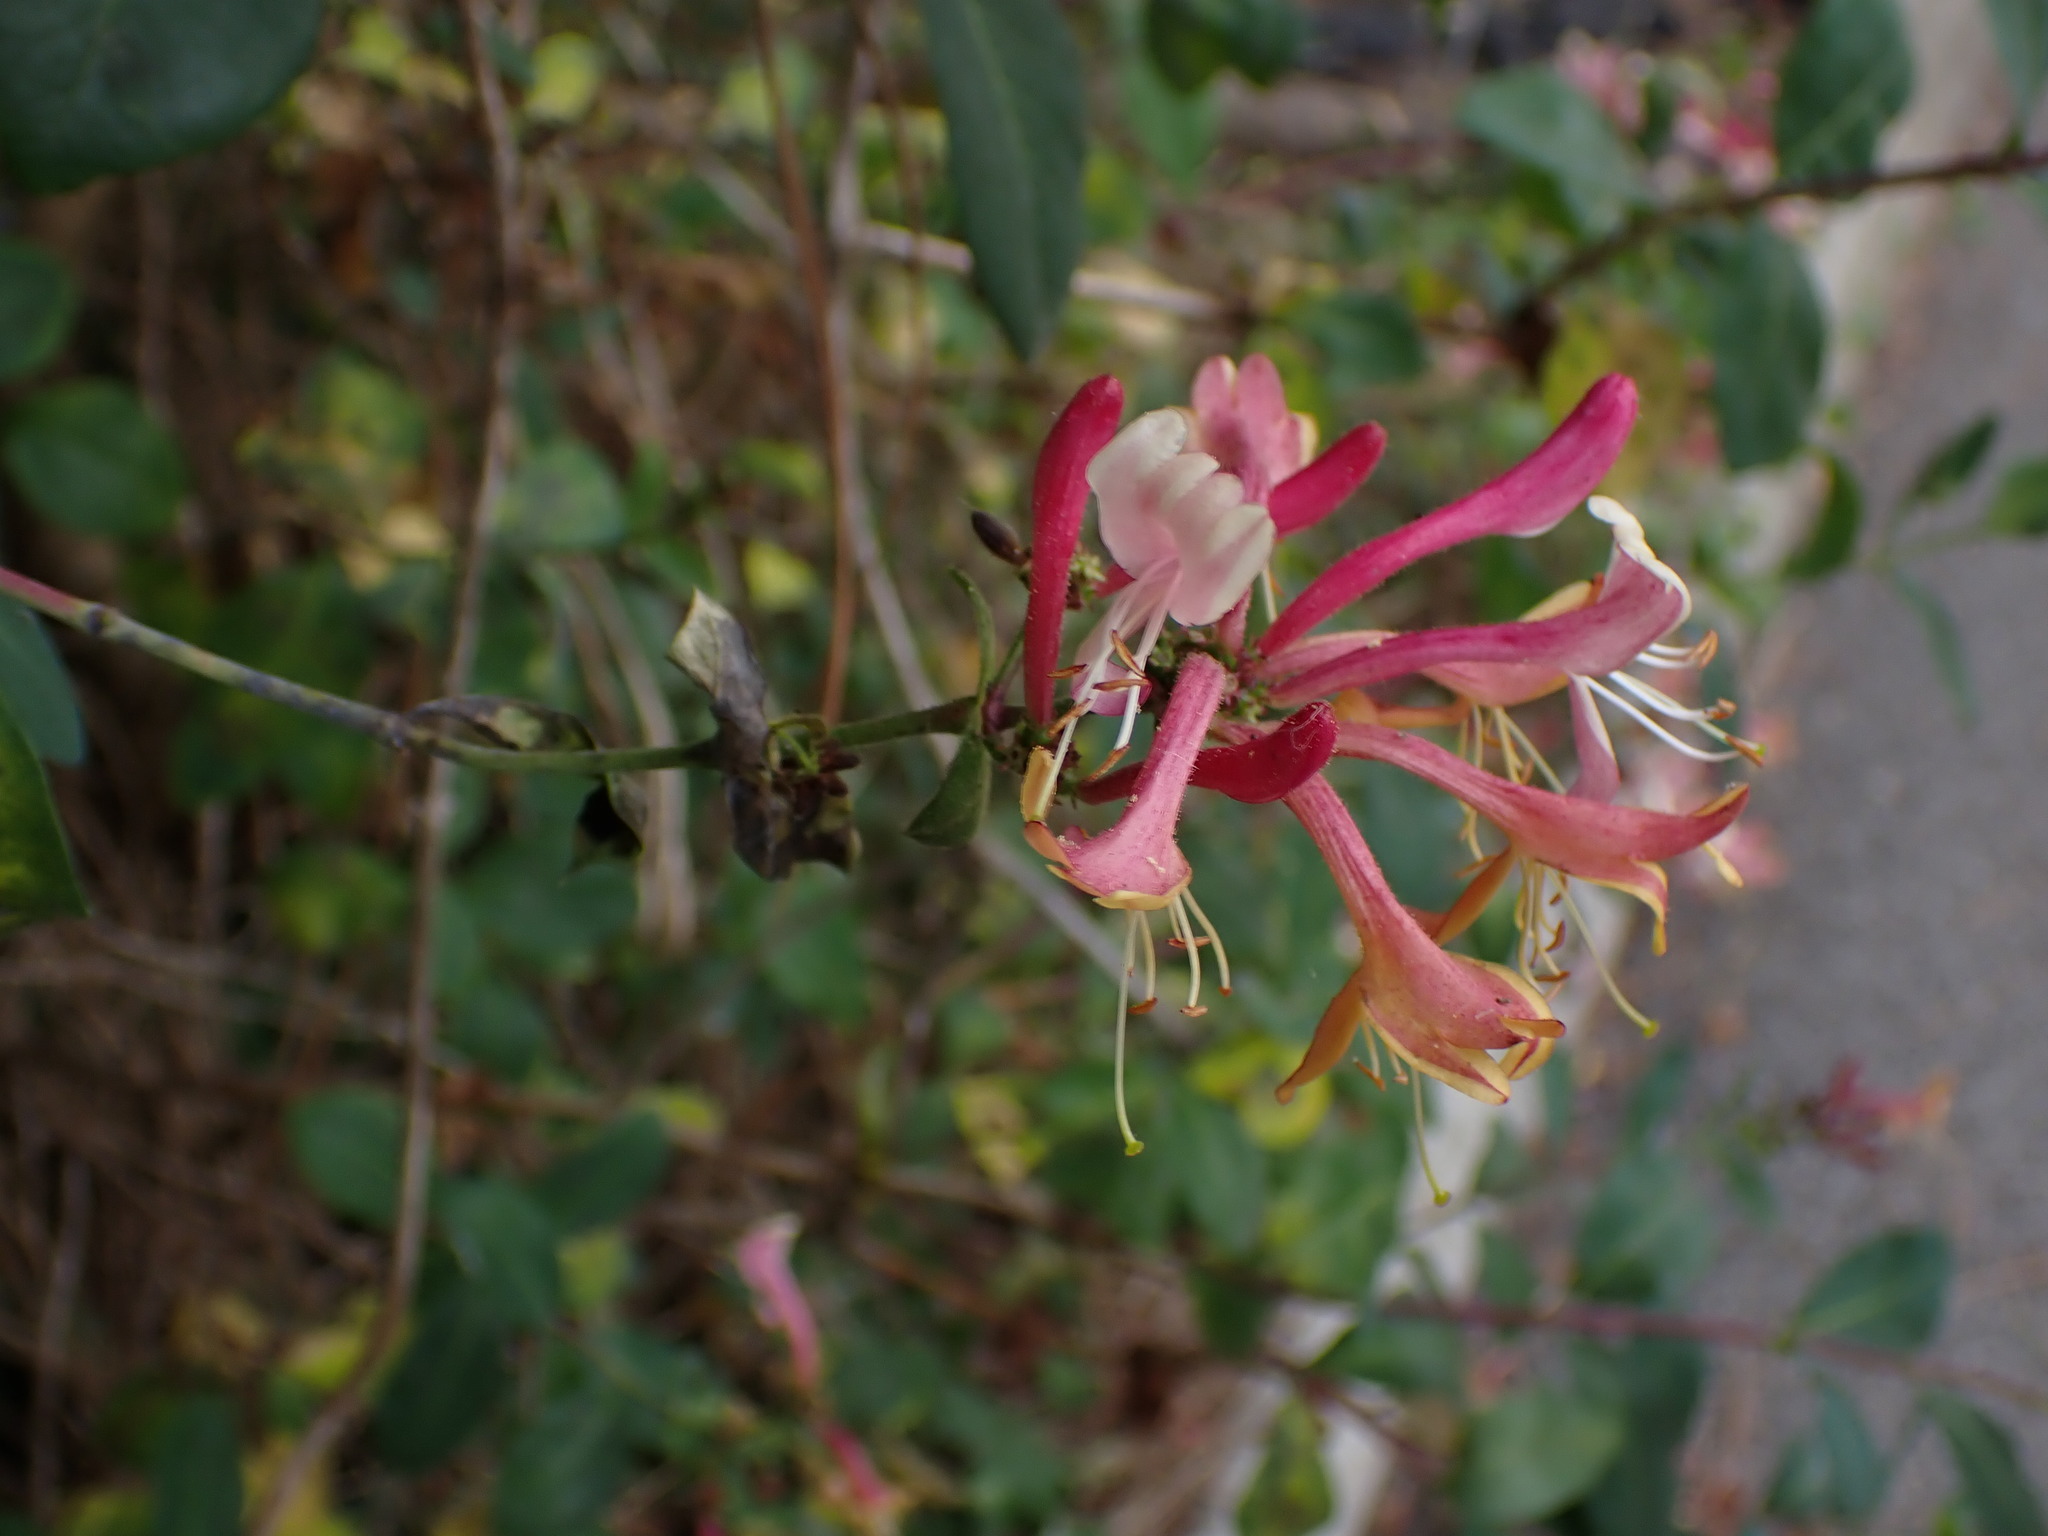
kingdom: Plantae
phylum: Tracheophyta
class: Magnoliopsida
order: Dipsacales
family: Caprifoliaceae
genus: Lonicera
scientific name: Lonicera periclymenum
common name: European honeysuckle
